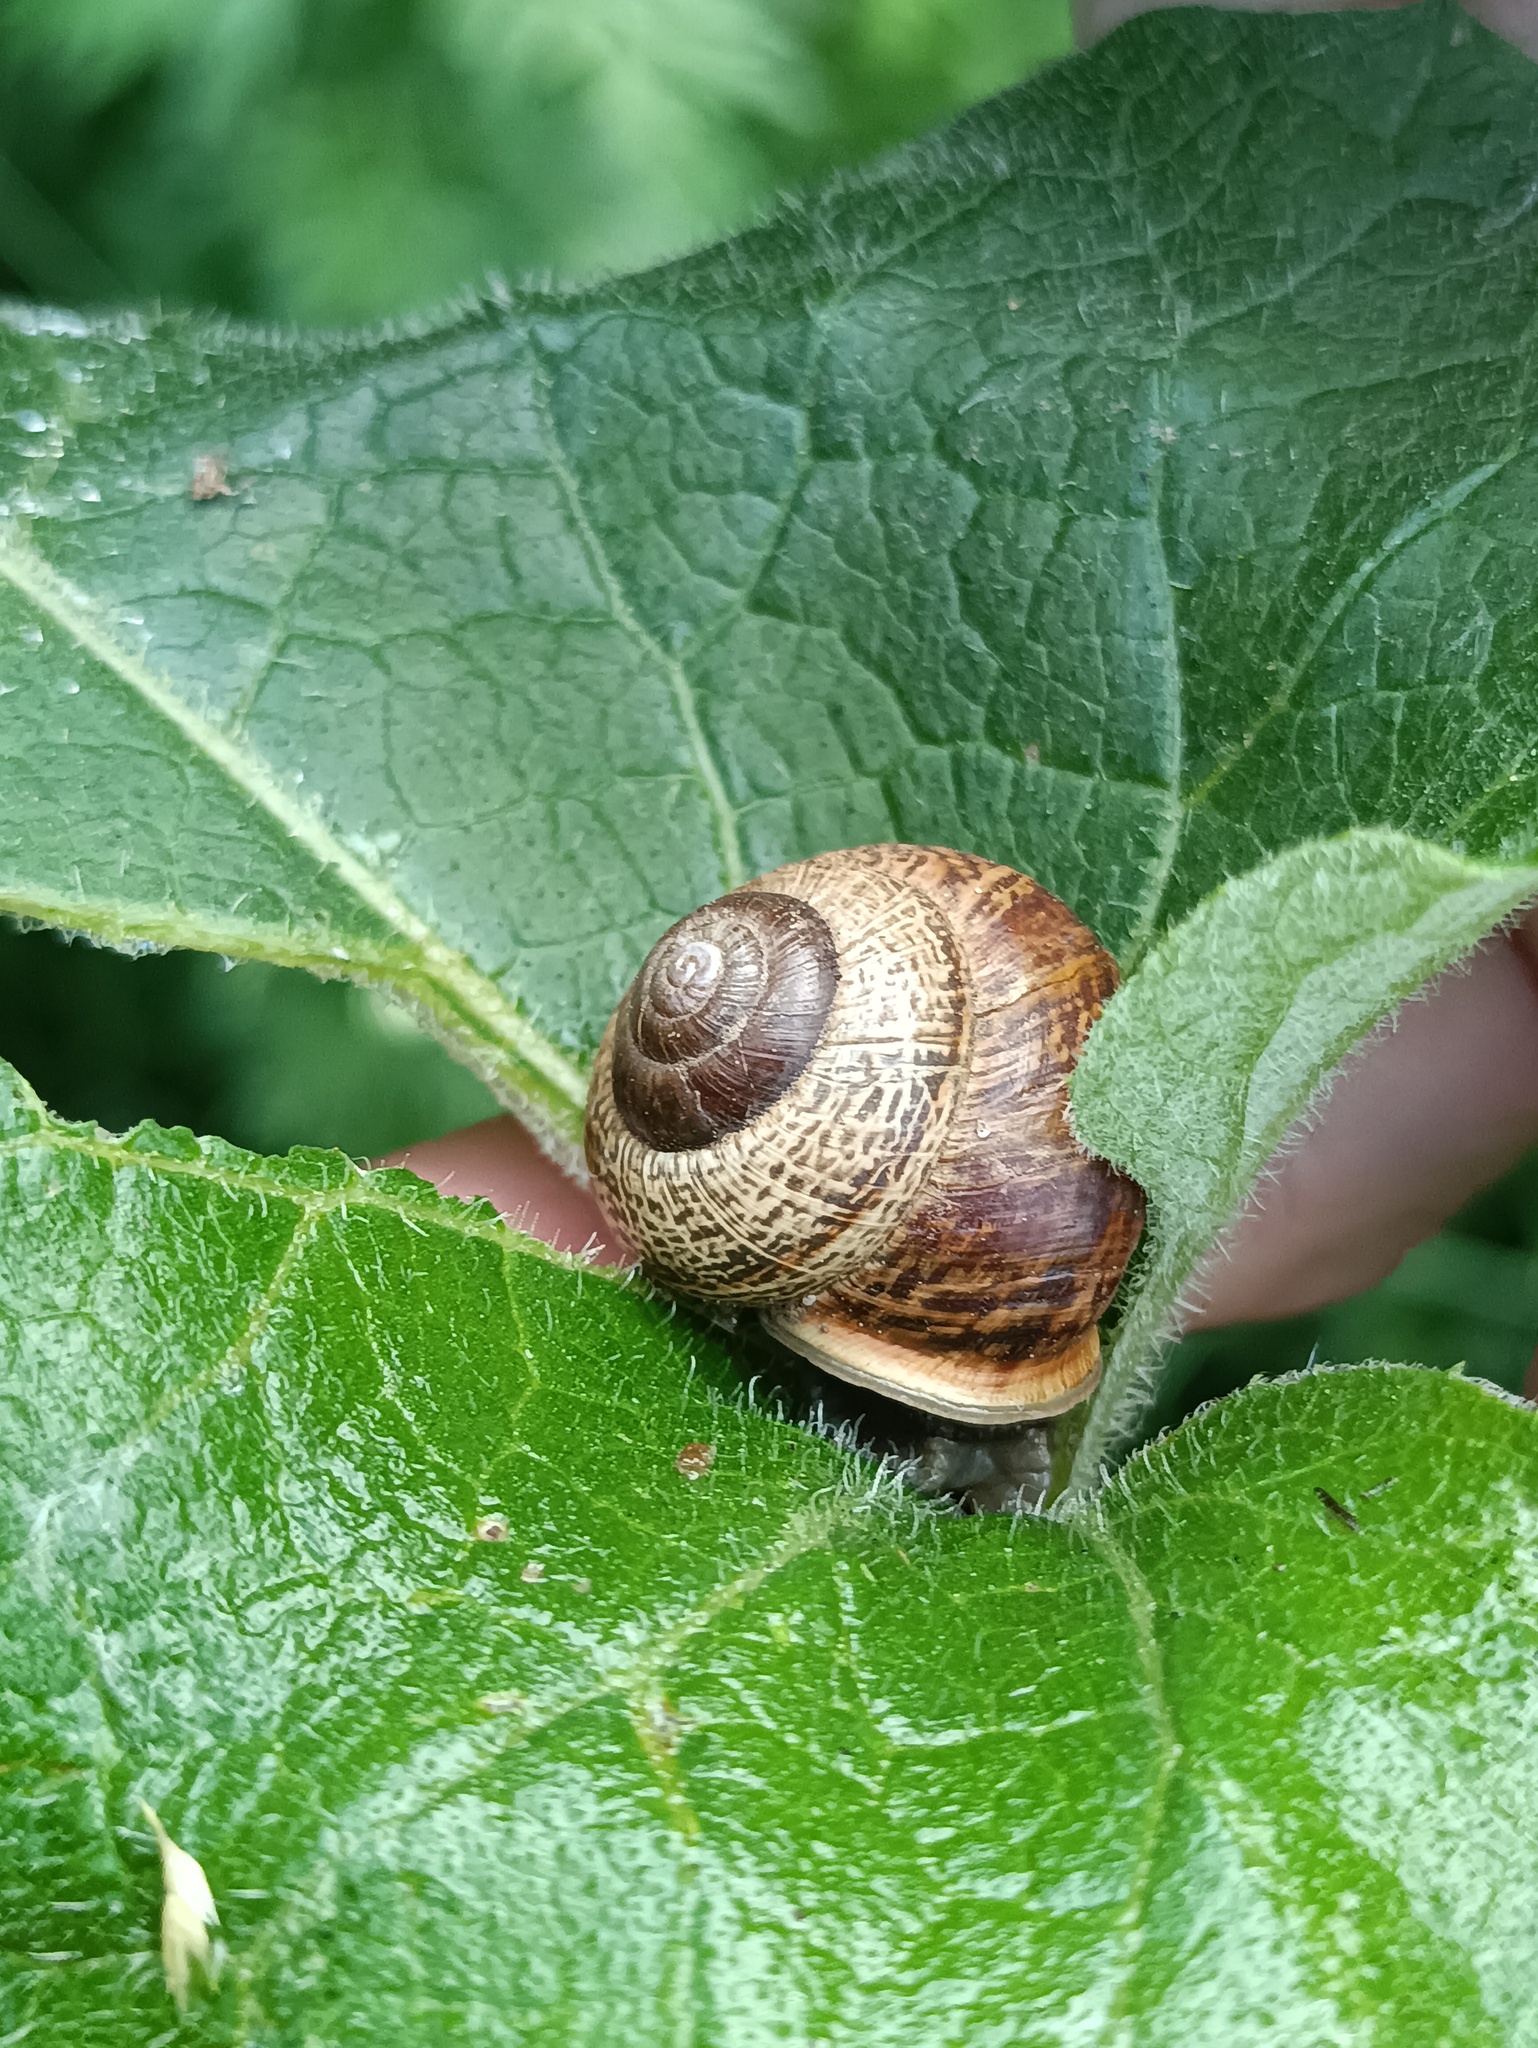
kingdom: Animalia
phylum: Mollusca
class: Gastropoda
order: Stylommatophora
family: Helicidae
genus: Arianta
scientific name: Arianta arbustorum
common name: Copse snail
